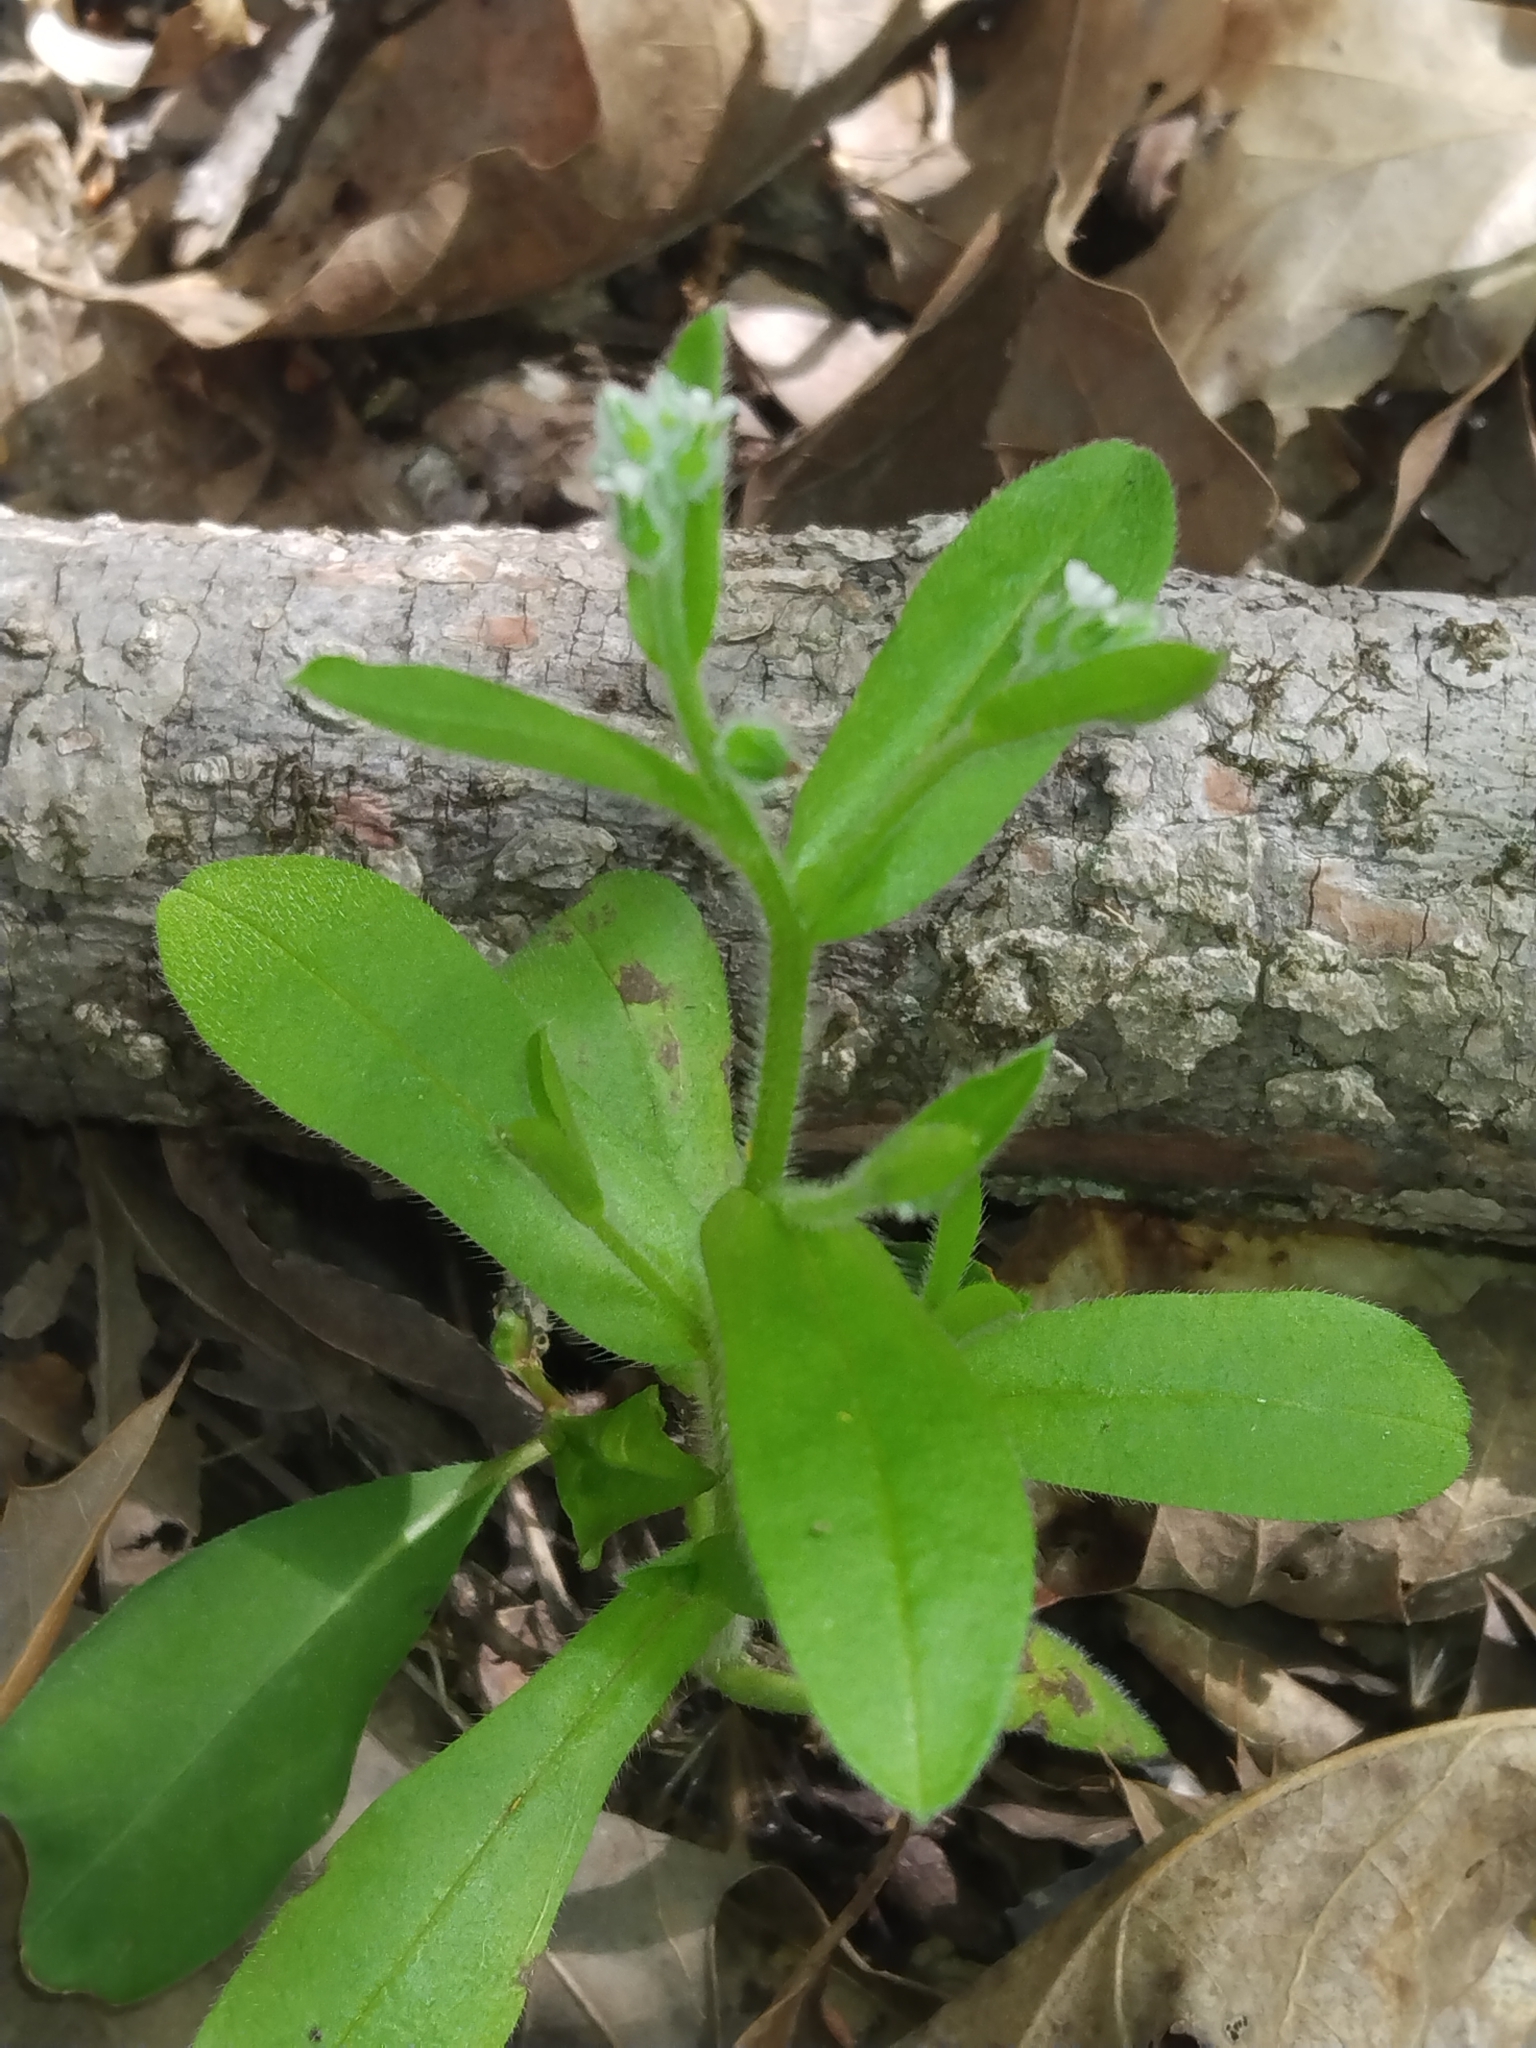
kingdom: Plantae
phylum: Tracheophyta
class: Magnoliopsida
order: Boraginales
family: Boraginaceae
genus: Myosotis
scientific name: Myosotis macrosperma
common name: Large-seed forget-me-not
